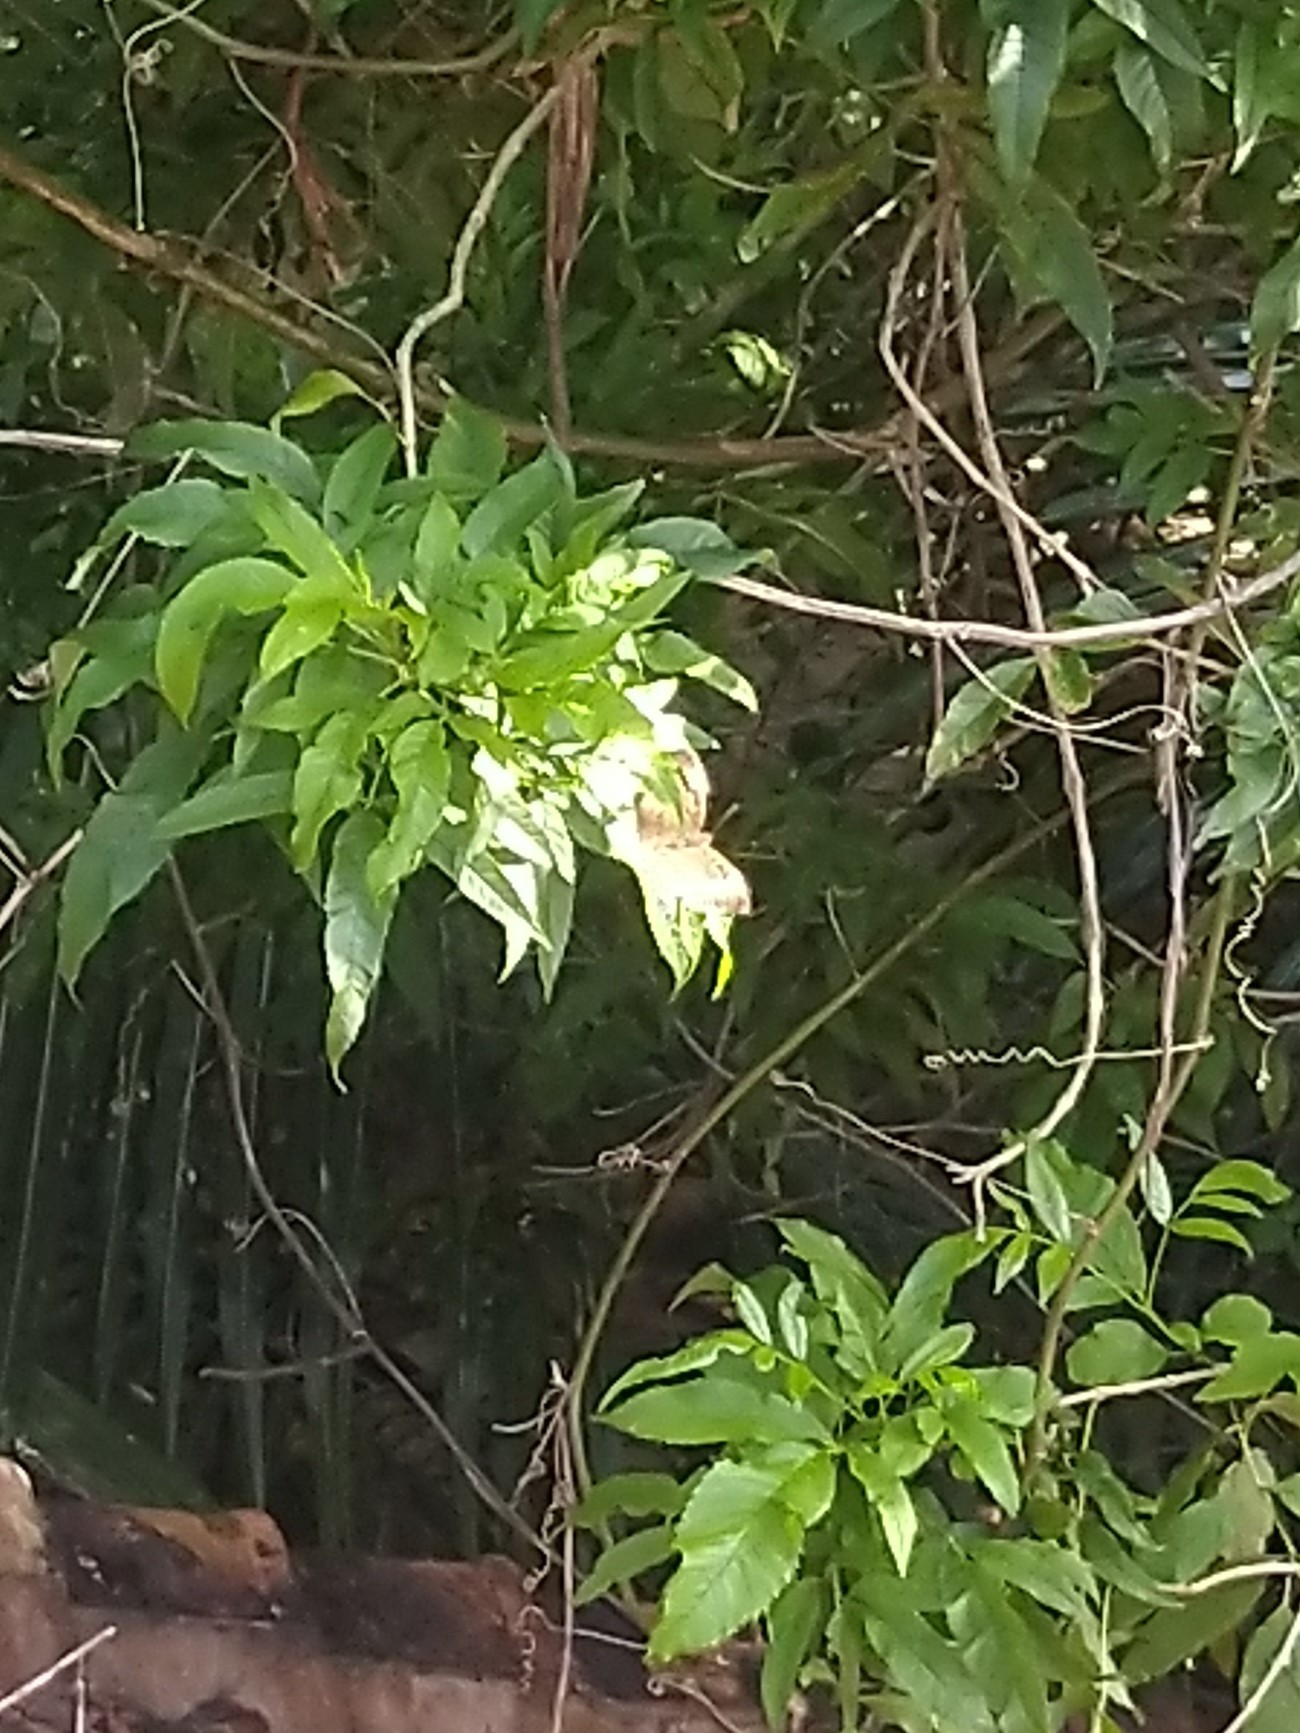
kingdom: Animalia
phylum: Arthropoda
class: Insecta
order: Lepidoptera
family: Nymphalidae
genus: Euthalia
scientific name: Euthalia aconthea
